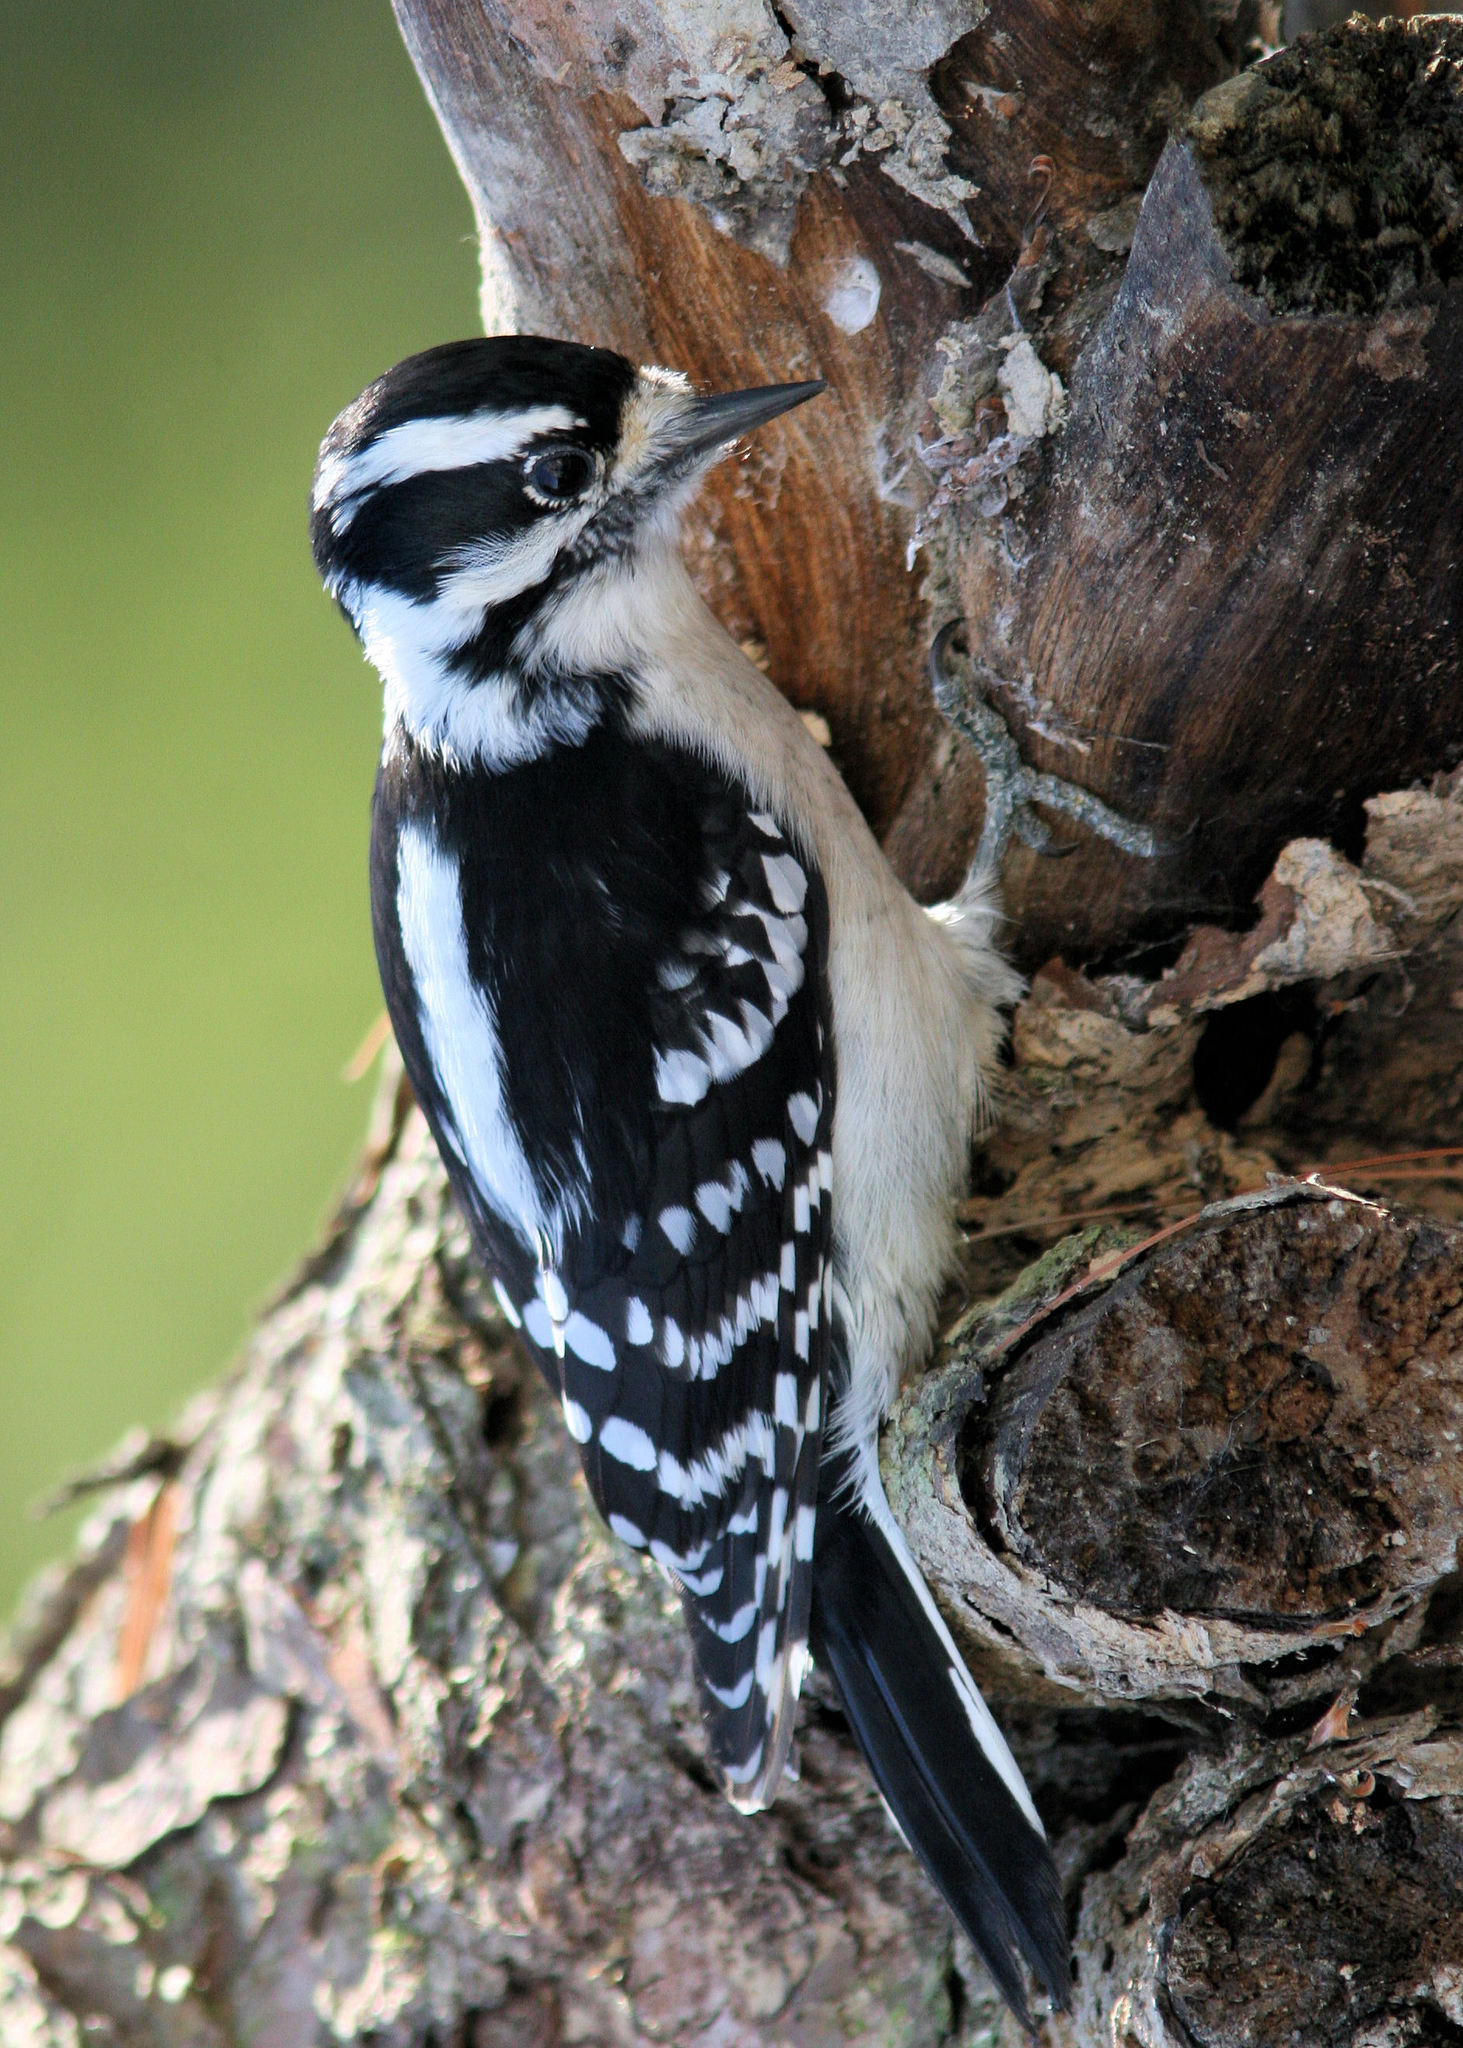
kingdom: Animalia
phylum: Chordata
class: Aves
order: Piciformes
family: Picidae
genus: Dryobates
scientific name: Dryobates pubescens
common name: Downy woodpecker
